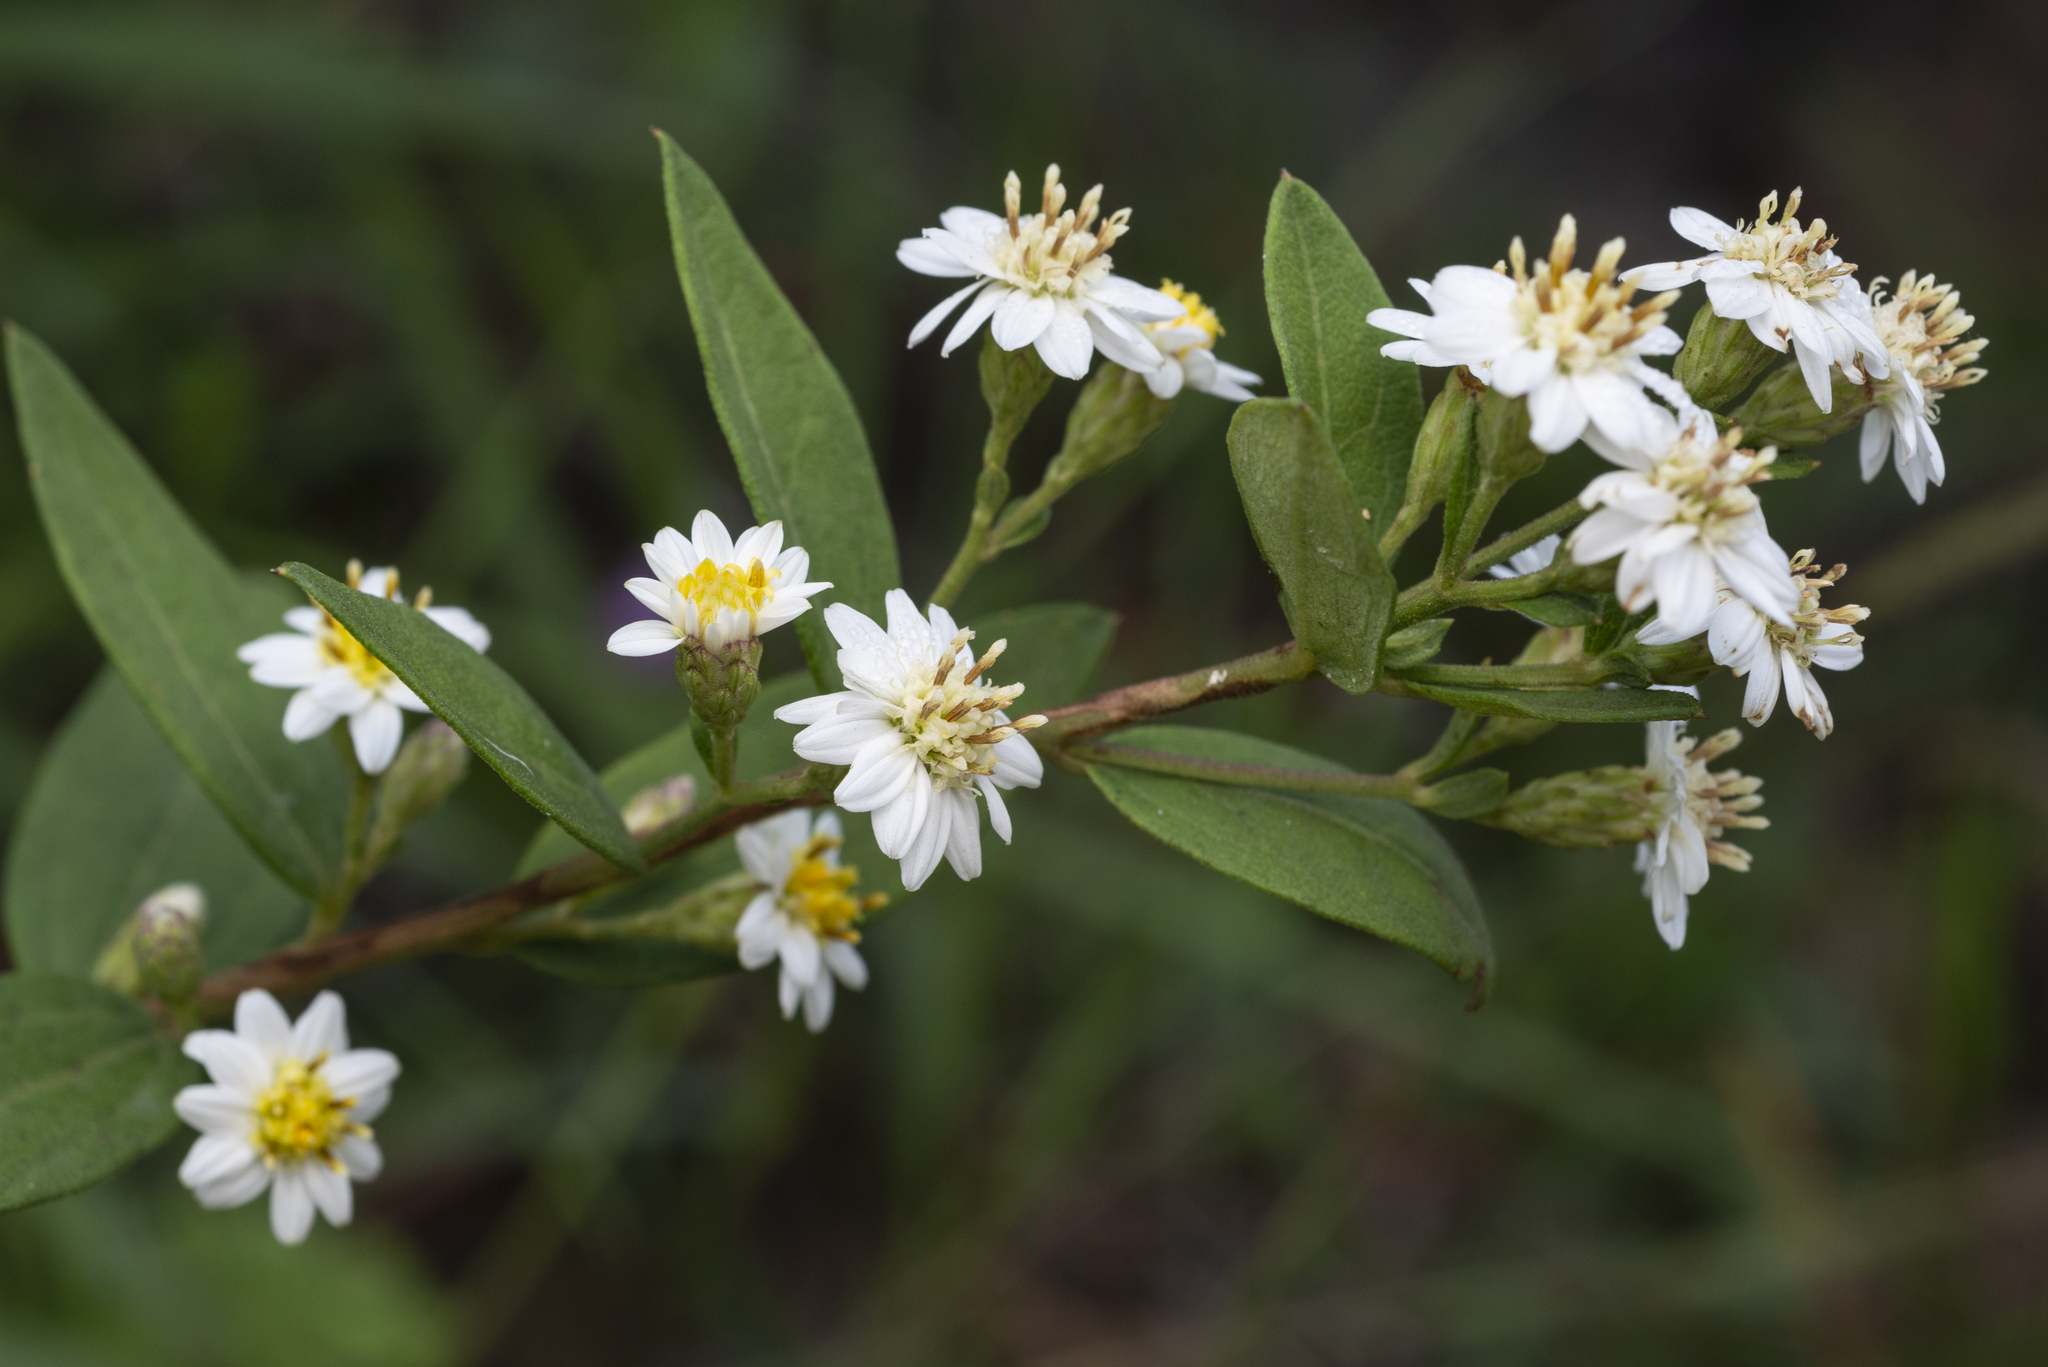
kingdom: Plantae
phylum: Tracheophyta
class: Magnoliopsida
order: Asterales
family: Asteraceae
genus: Aster
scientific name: Aster baccharoides
